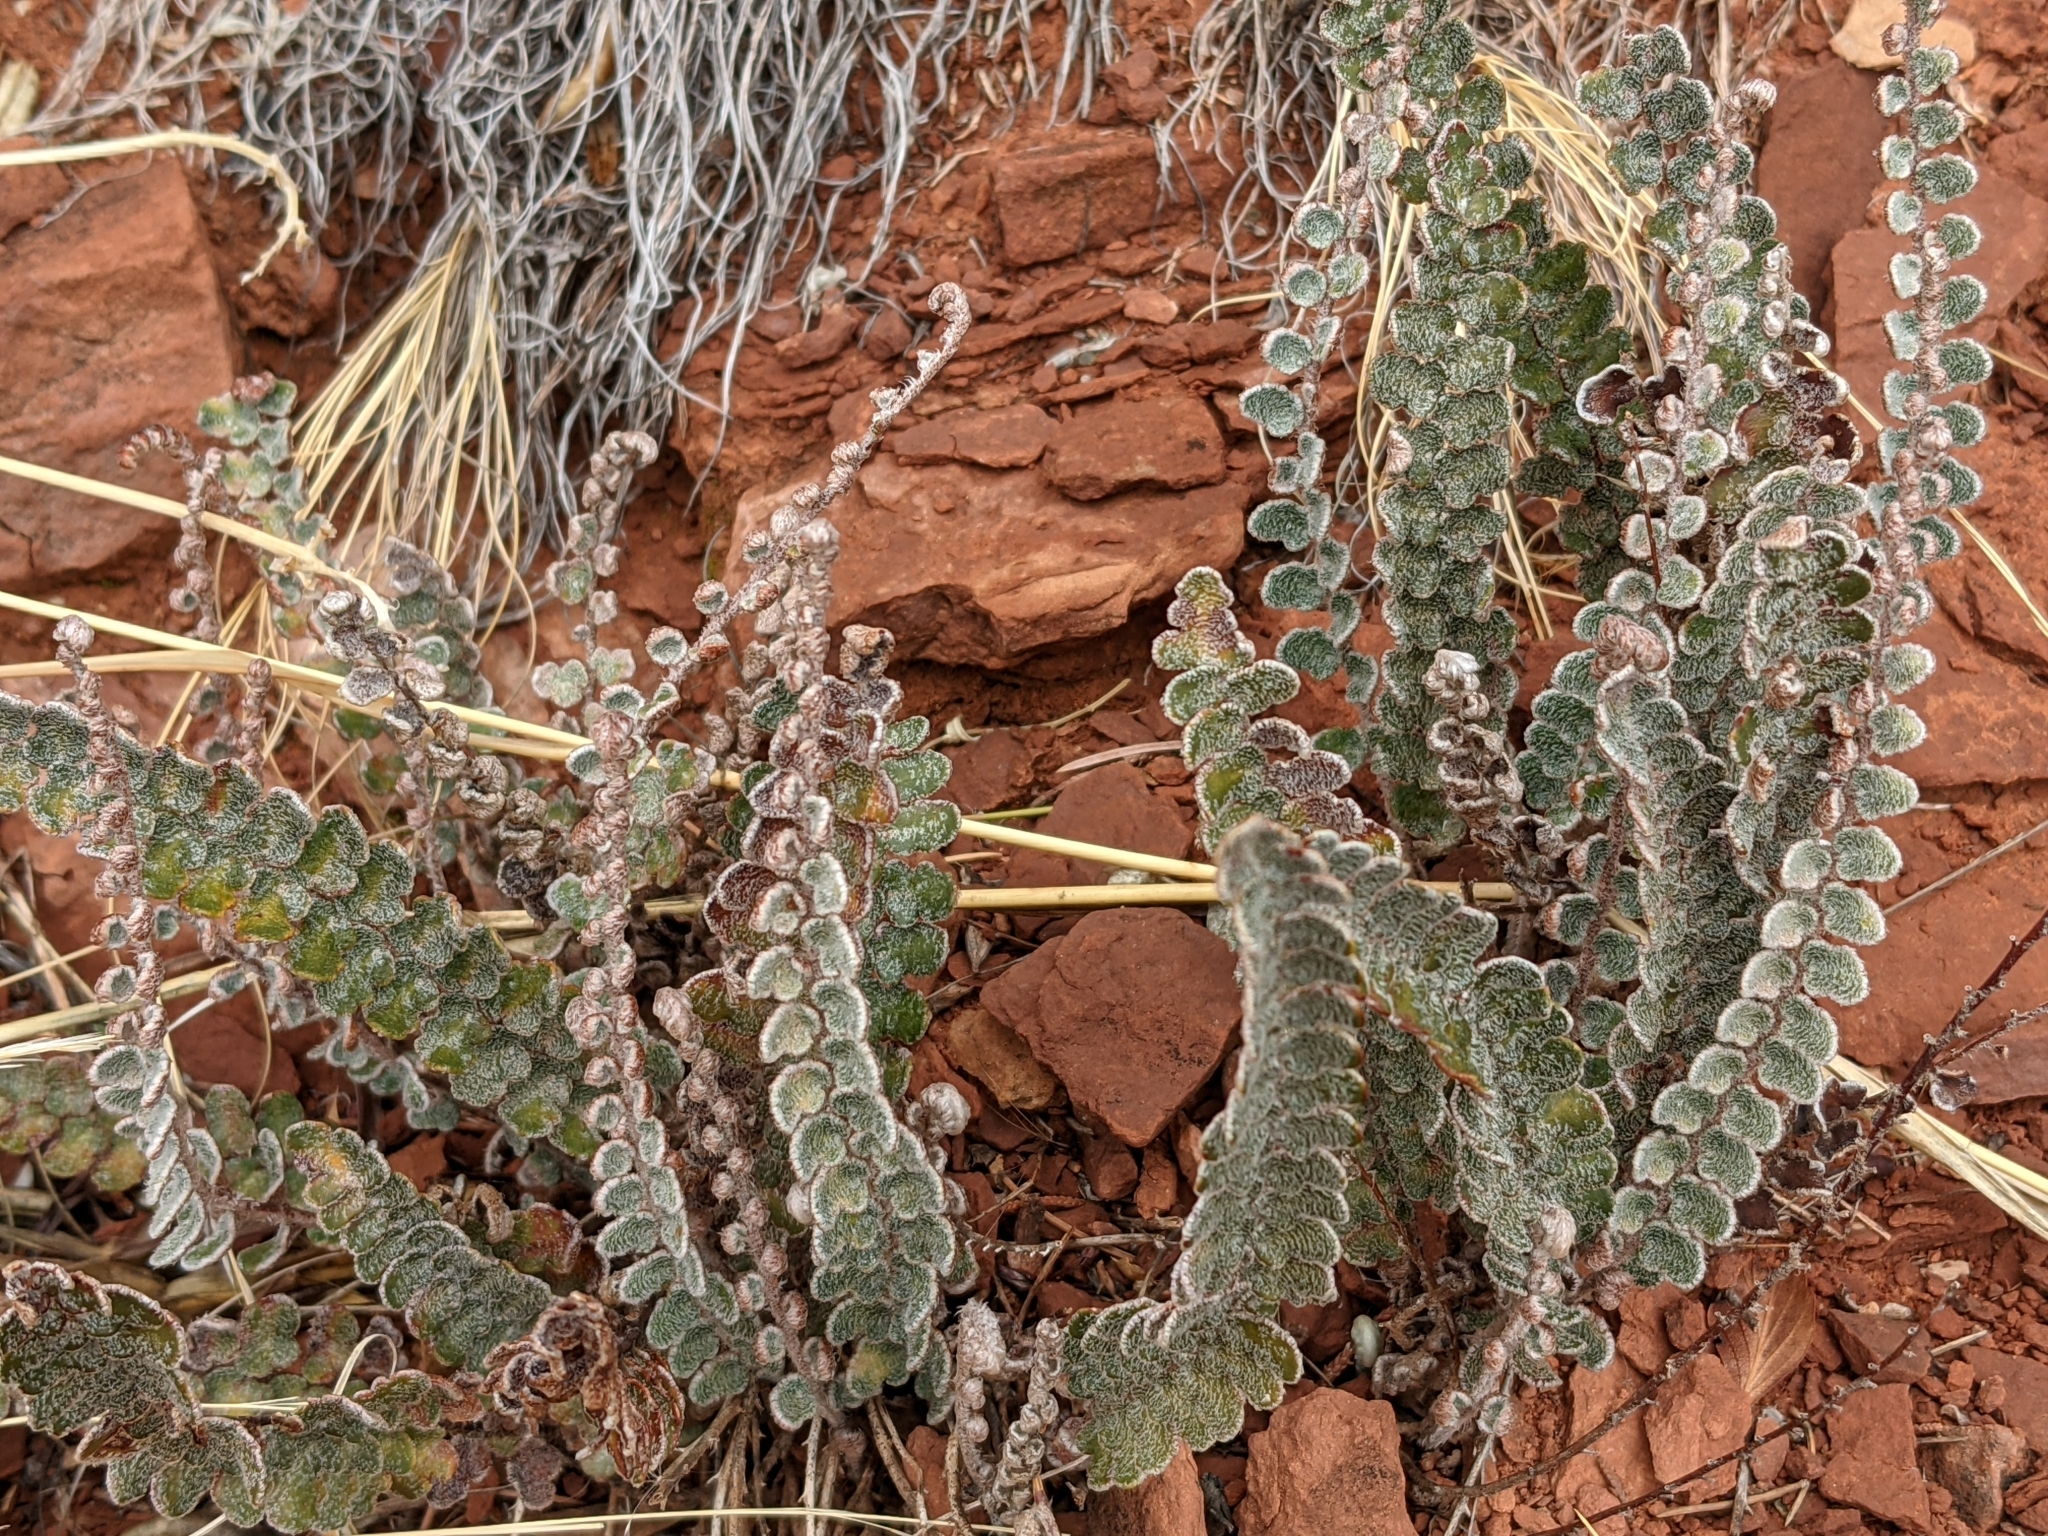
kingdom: Plantae
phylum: Tracheophyta
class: Polypodiopsida
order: Polypodiales
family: Pteridaceae
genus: Astrolepis
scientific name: Astrolepis integerrima
